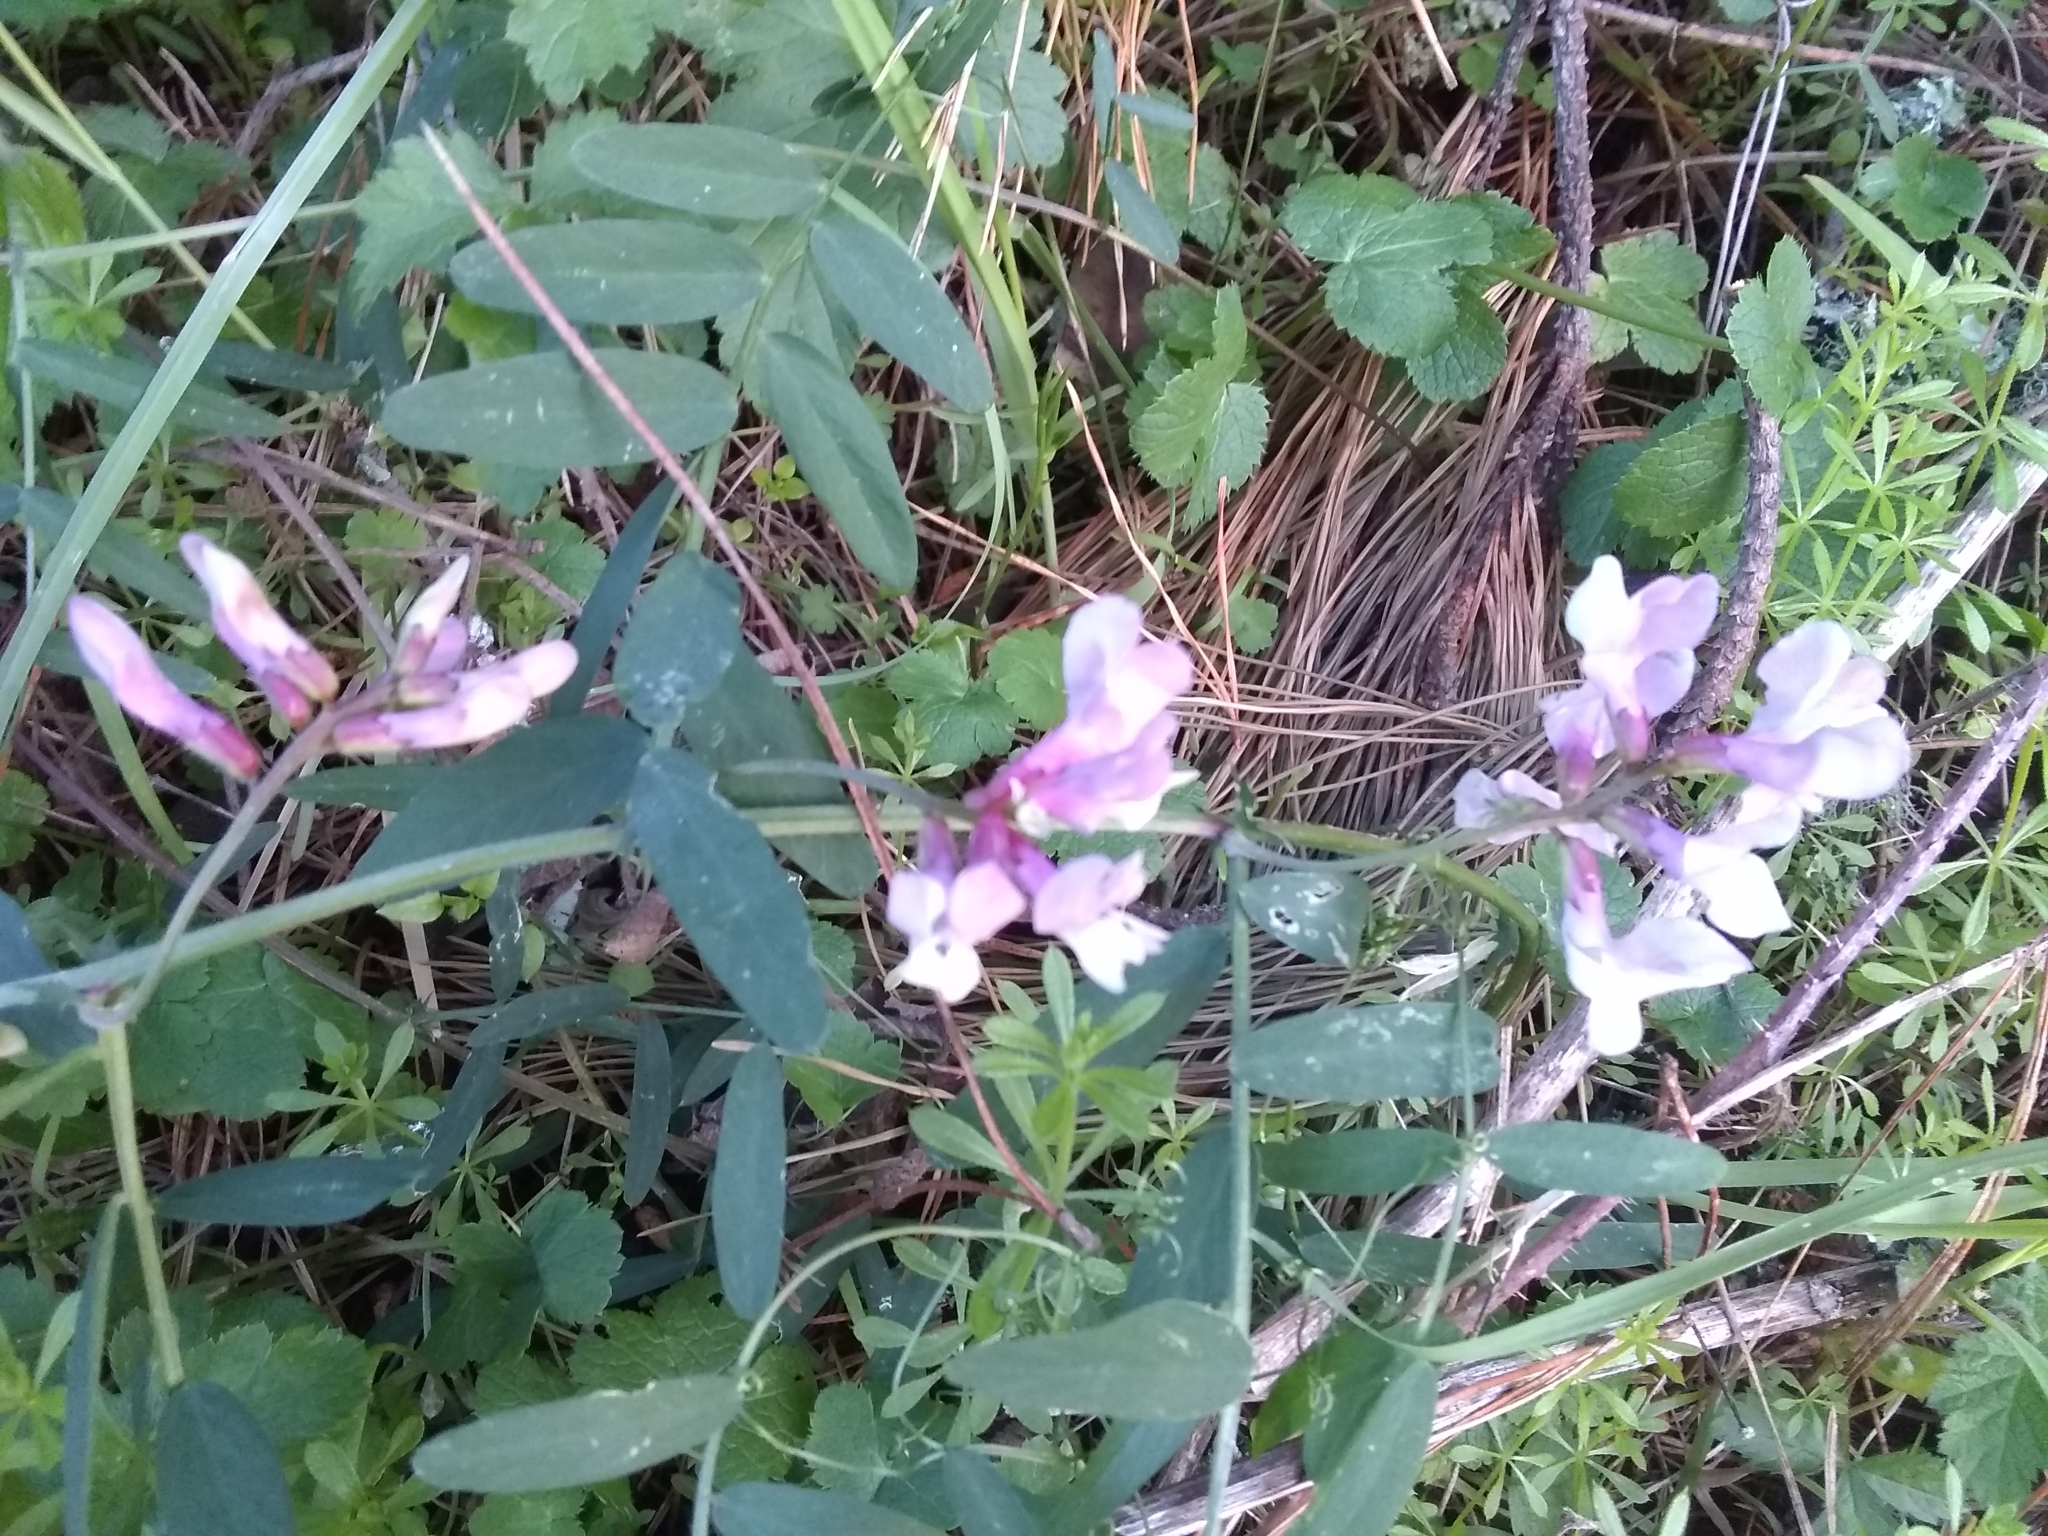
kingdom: Plantae
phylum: Tracheophyta
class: Magnoliopsida
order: Fabales
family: Fabaceae
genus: Vicia
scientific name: Vicia americana
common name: American vetch
